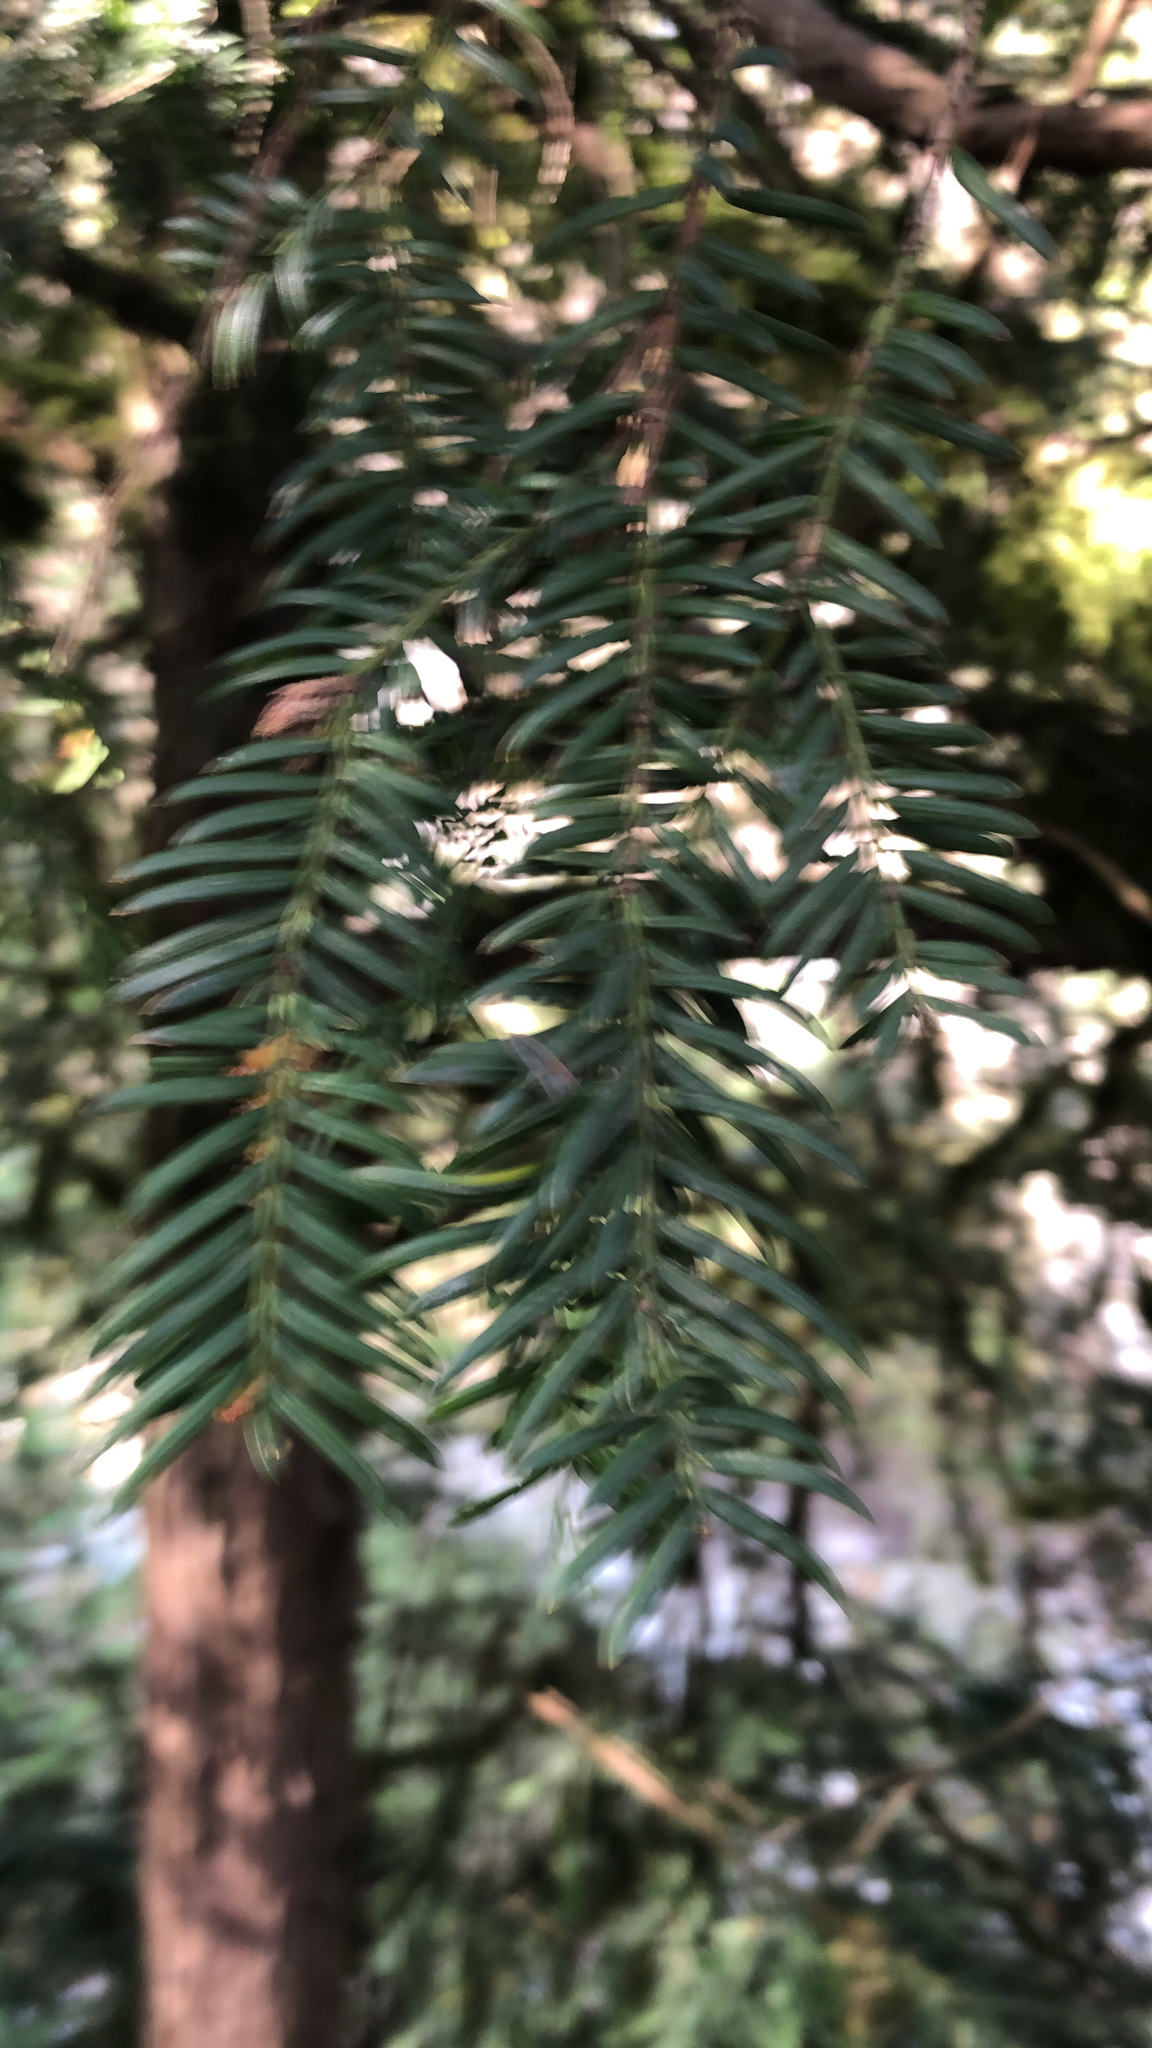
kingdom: Plantae
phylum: Tracheophyta
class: Pinopsida
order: Pinales
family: Taxaceae
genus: Taxus
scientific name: Taxus baccata
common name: Yew
